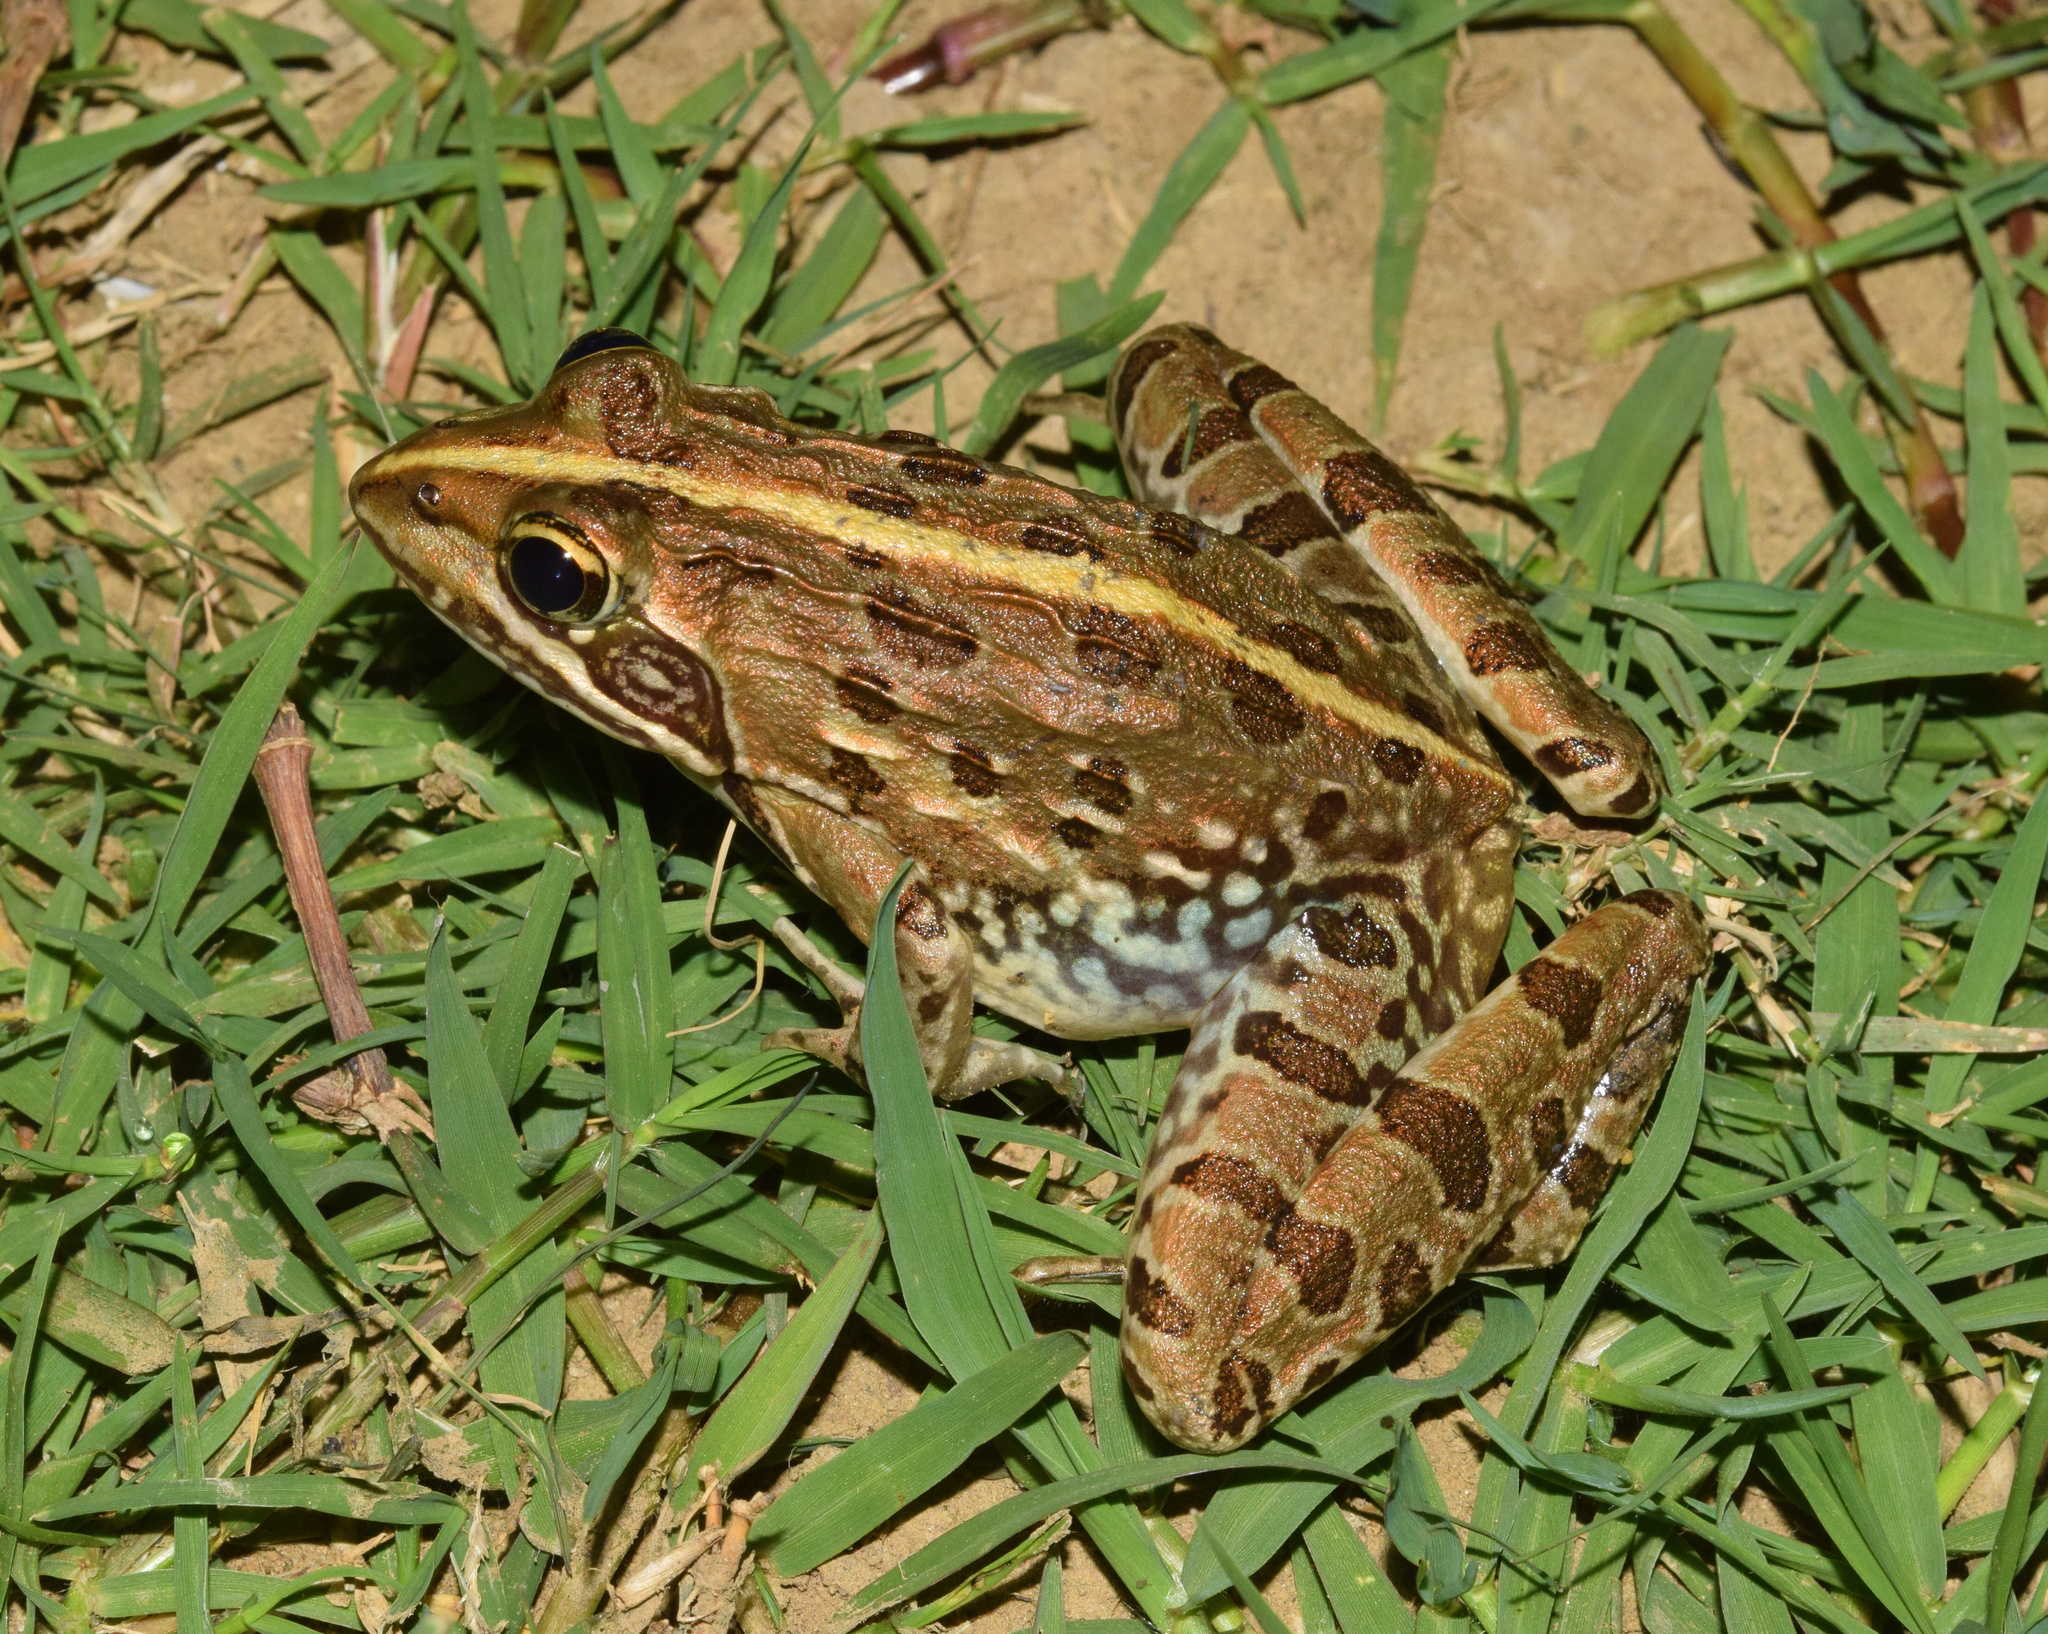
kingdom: Animalia
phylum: Chordata
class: Amphibia
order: Anura
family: Pyxicephalidae
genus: Amietia
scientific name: Amietia delalandii
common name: Delalande's river frog
